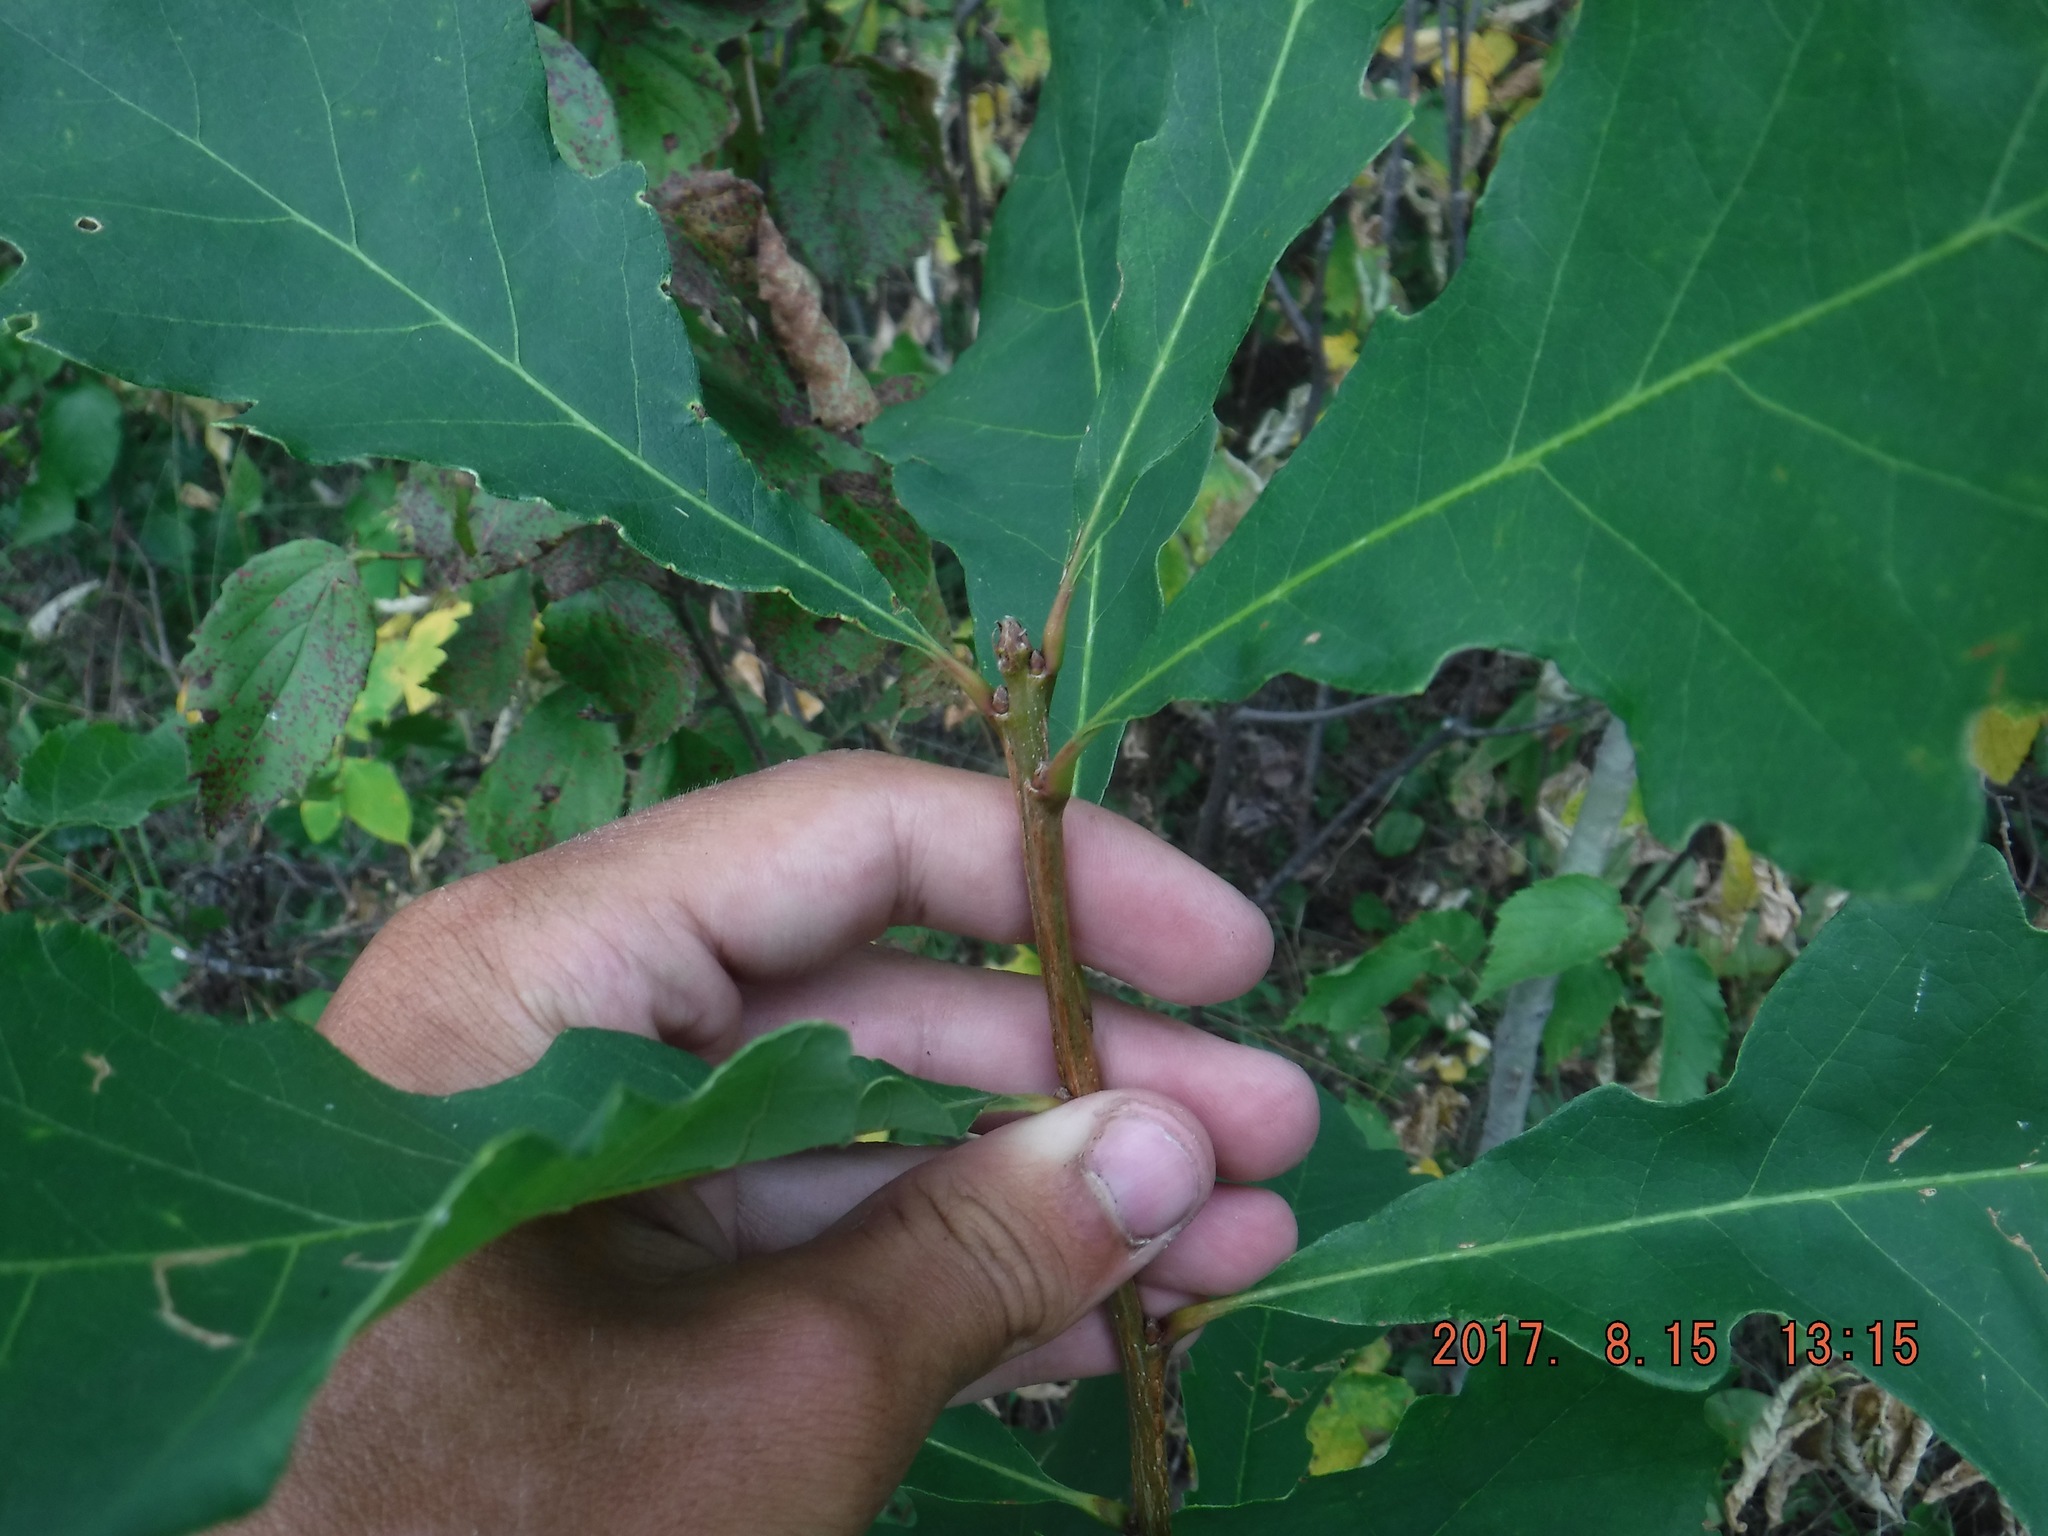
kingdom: Plantae
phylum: Tracheophyta
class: Magnoliopsida
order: Fagales
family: Fagaceae
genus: Quercus
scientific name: Quercus macrocarpa
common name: Bur oak
